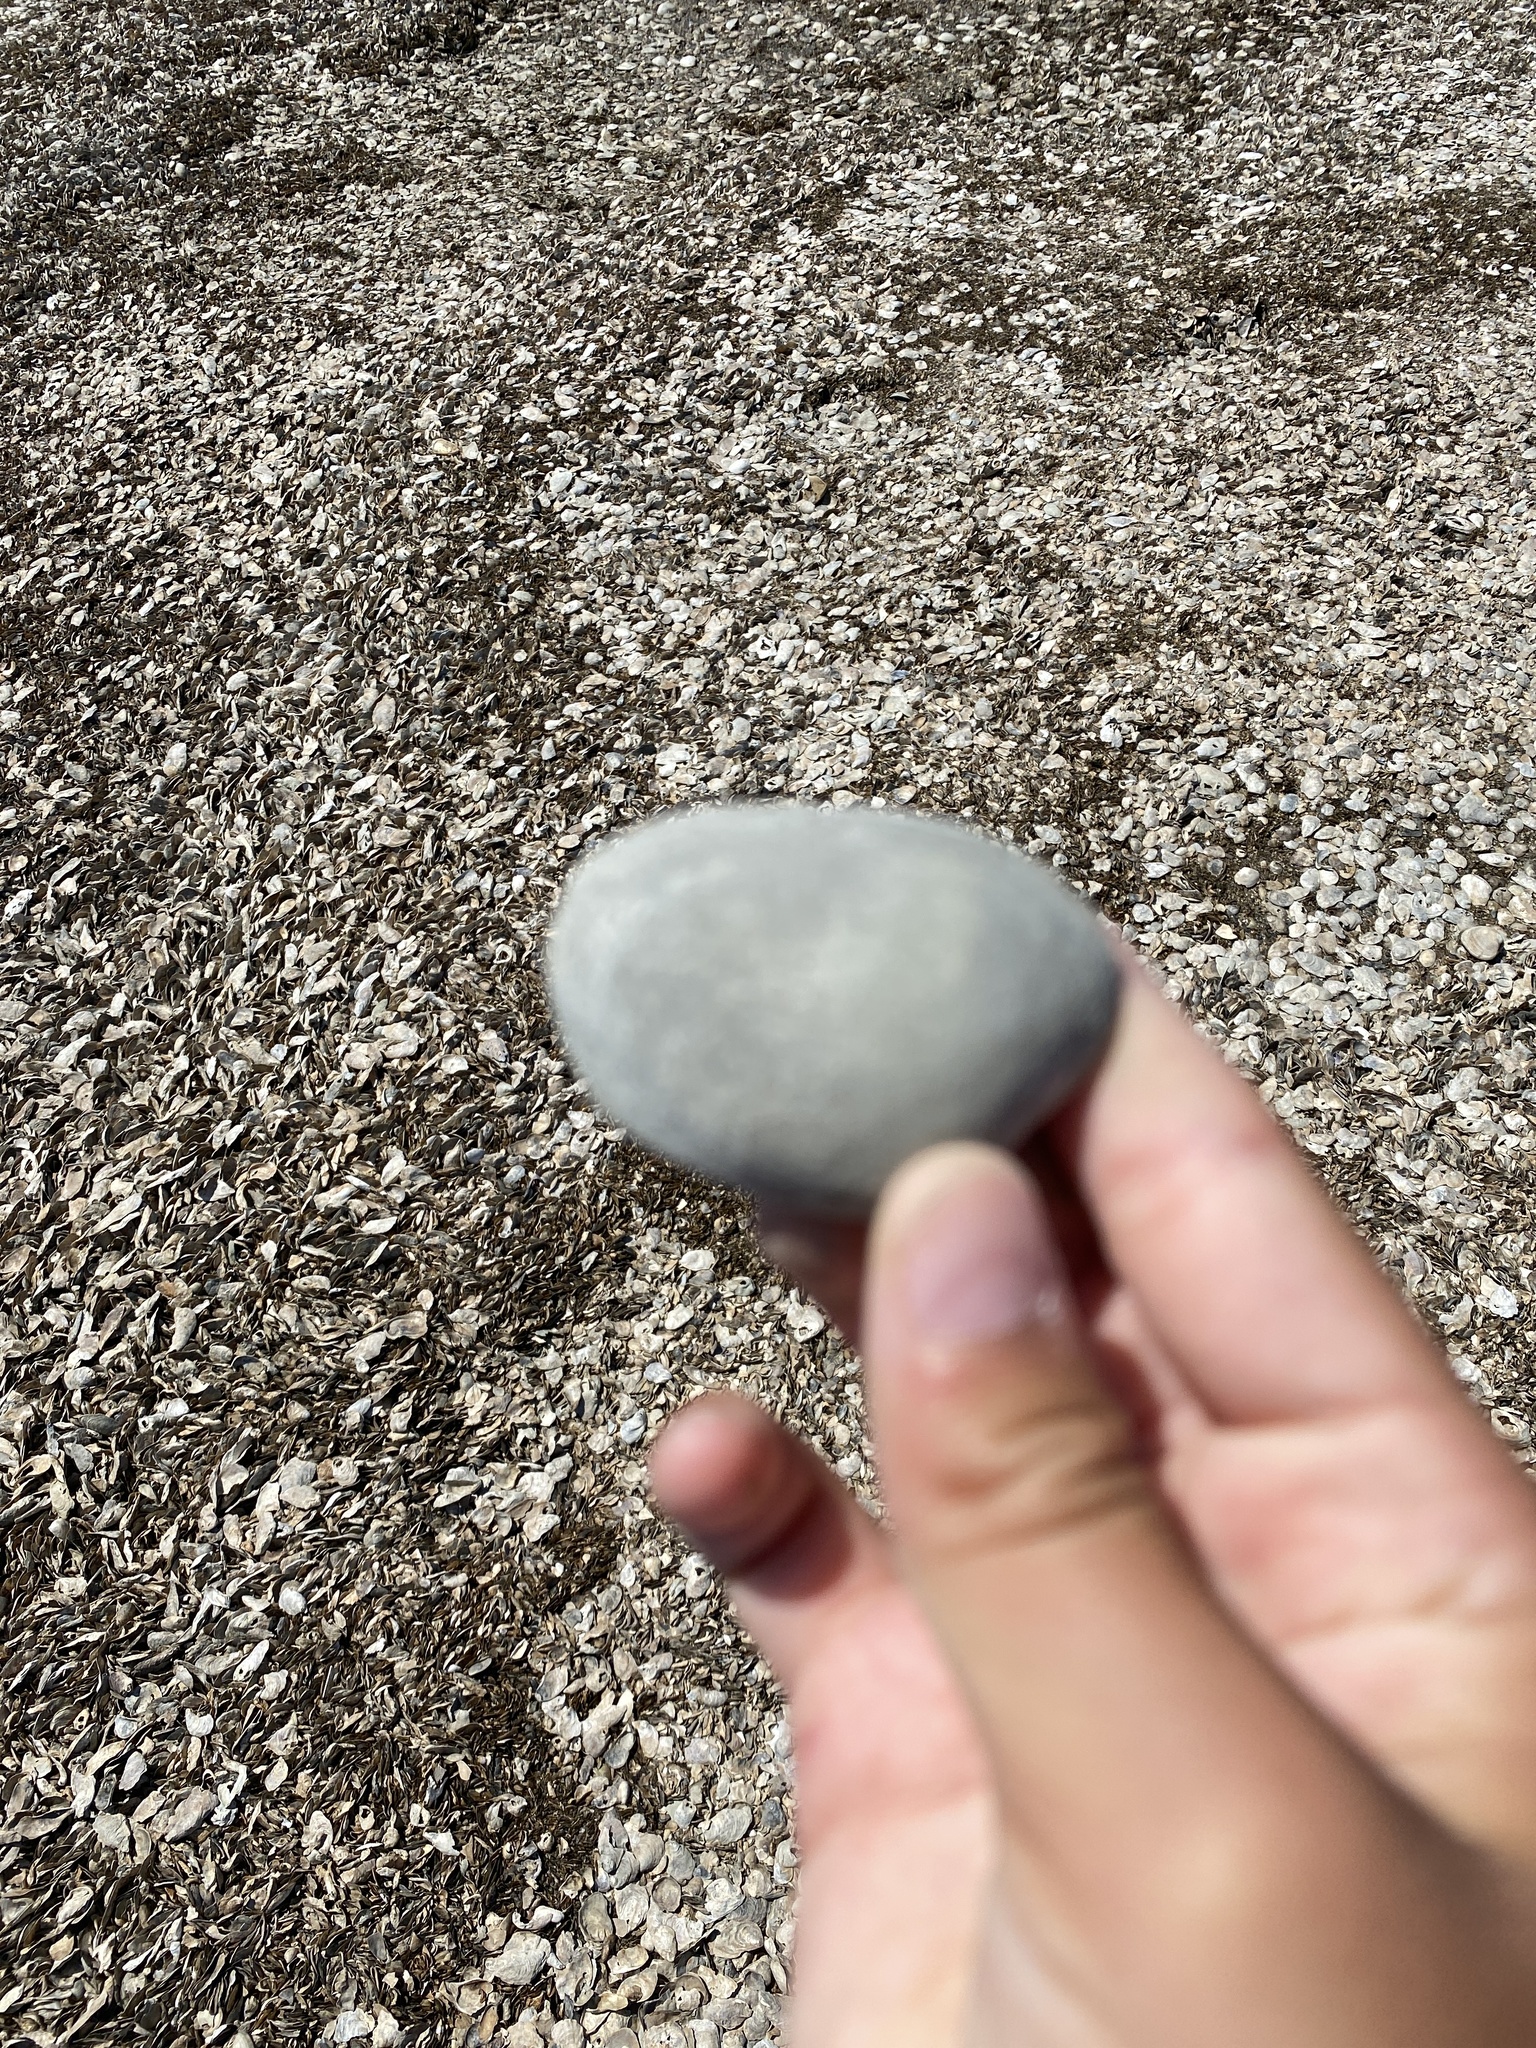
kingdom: Animalia
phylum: Mollusca
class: Bivalvia
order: Venerida
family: Veneridae
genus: Ruditapes
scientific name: Ruditapes philippinarum
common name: Manila clam
